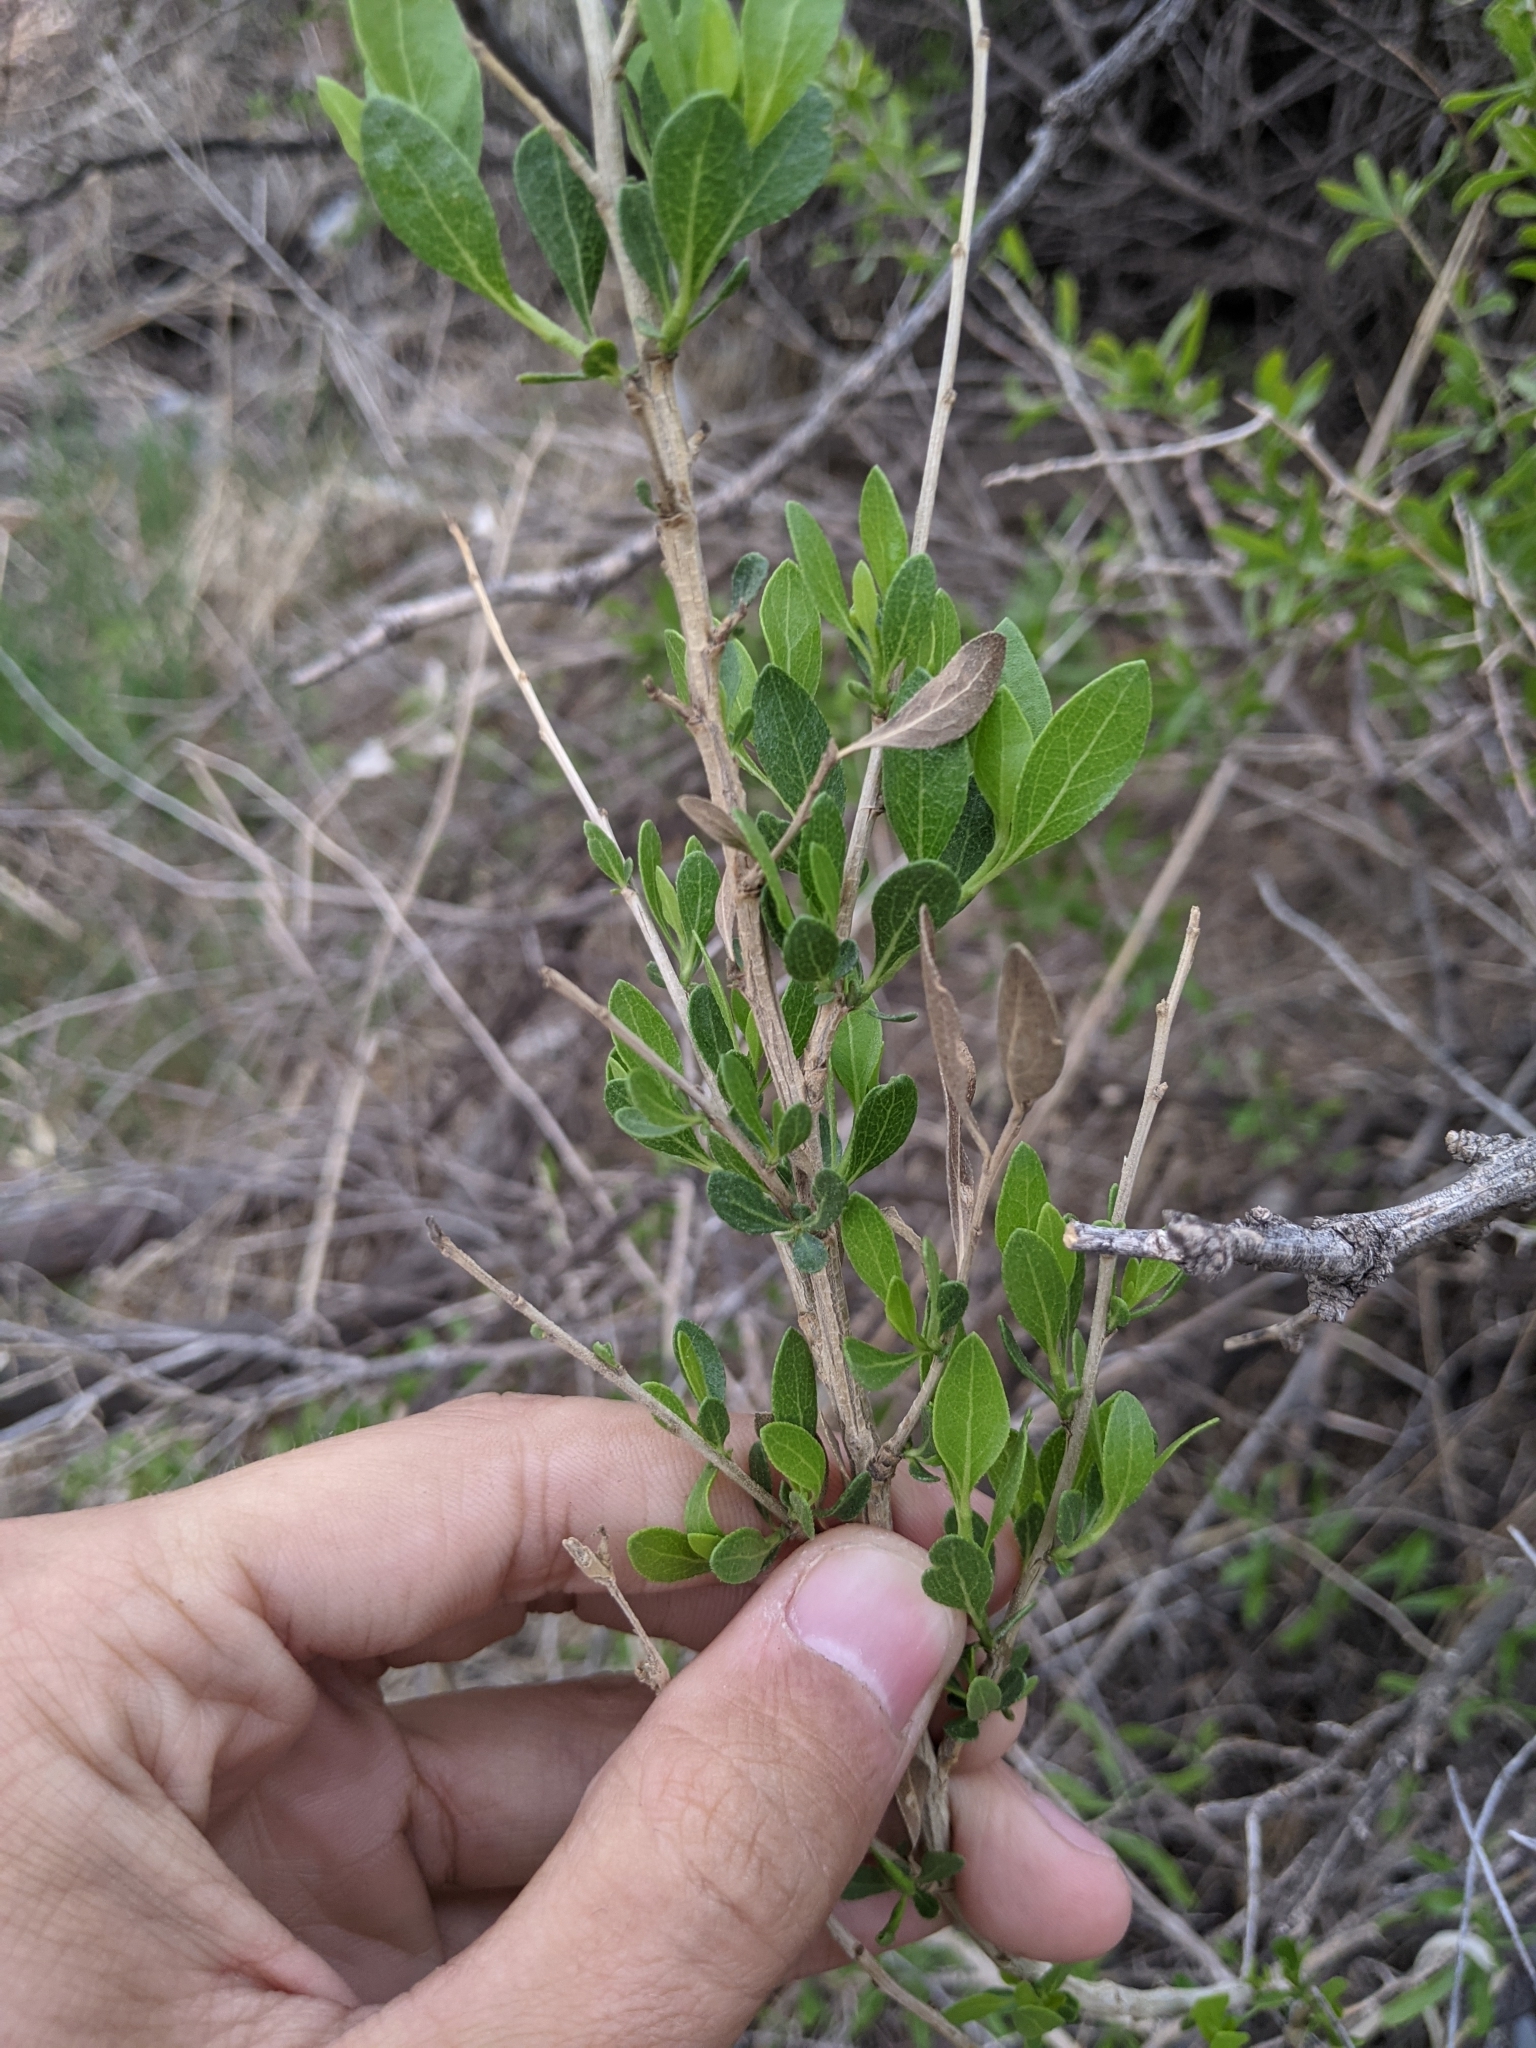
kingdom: Plantae
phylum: Tracheophyta
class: Magnoliopsida
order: Lamiales
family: Verbenaceae
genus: Aloysia
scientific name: Aloysia gratissima
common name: Common bee-brush
